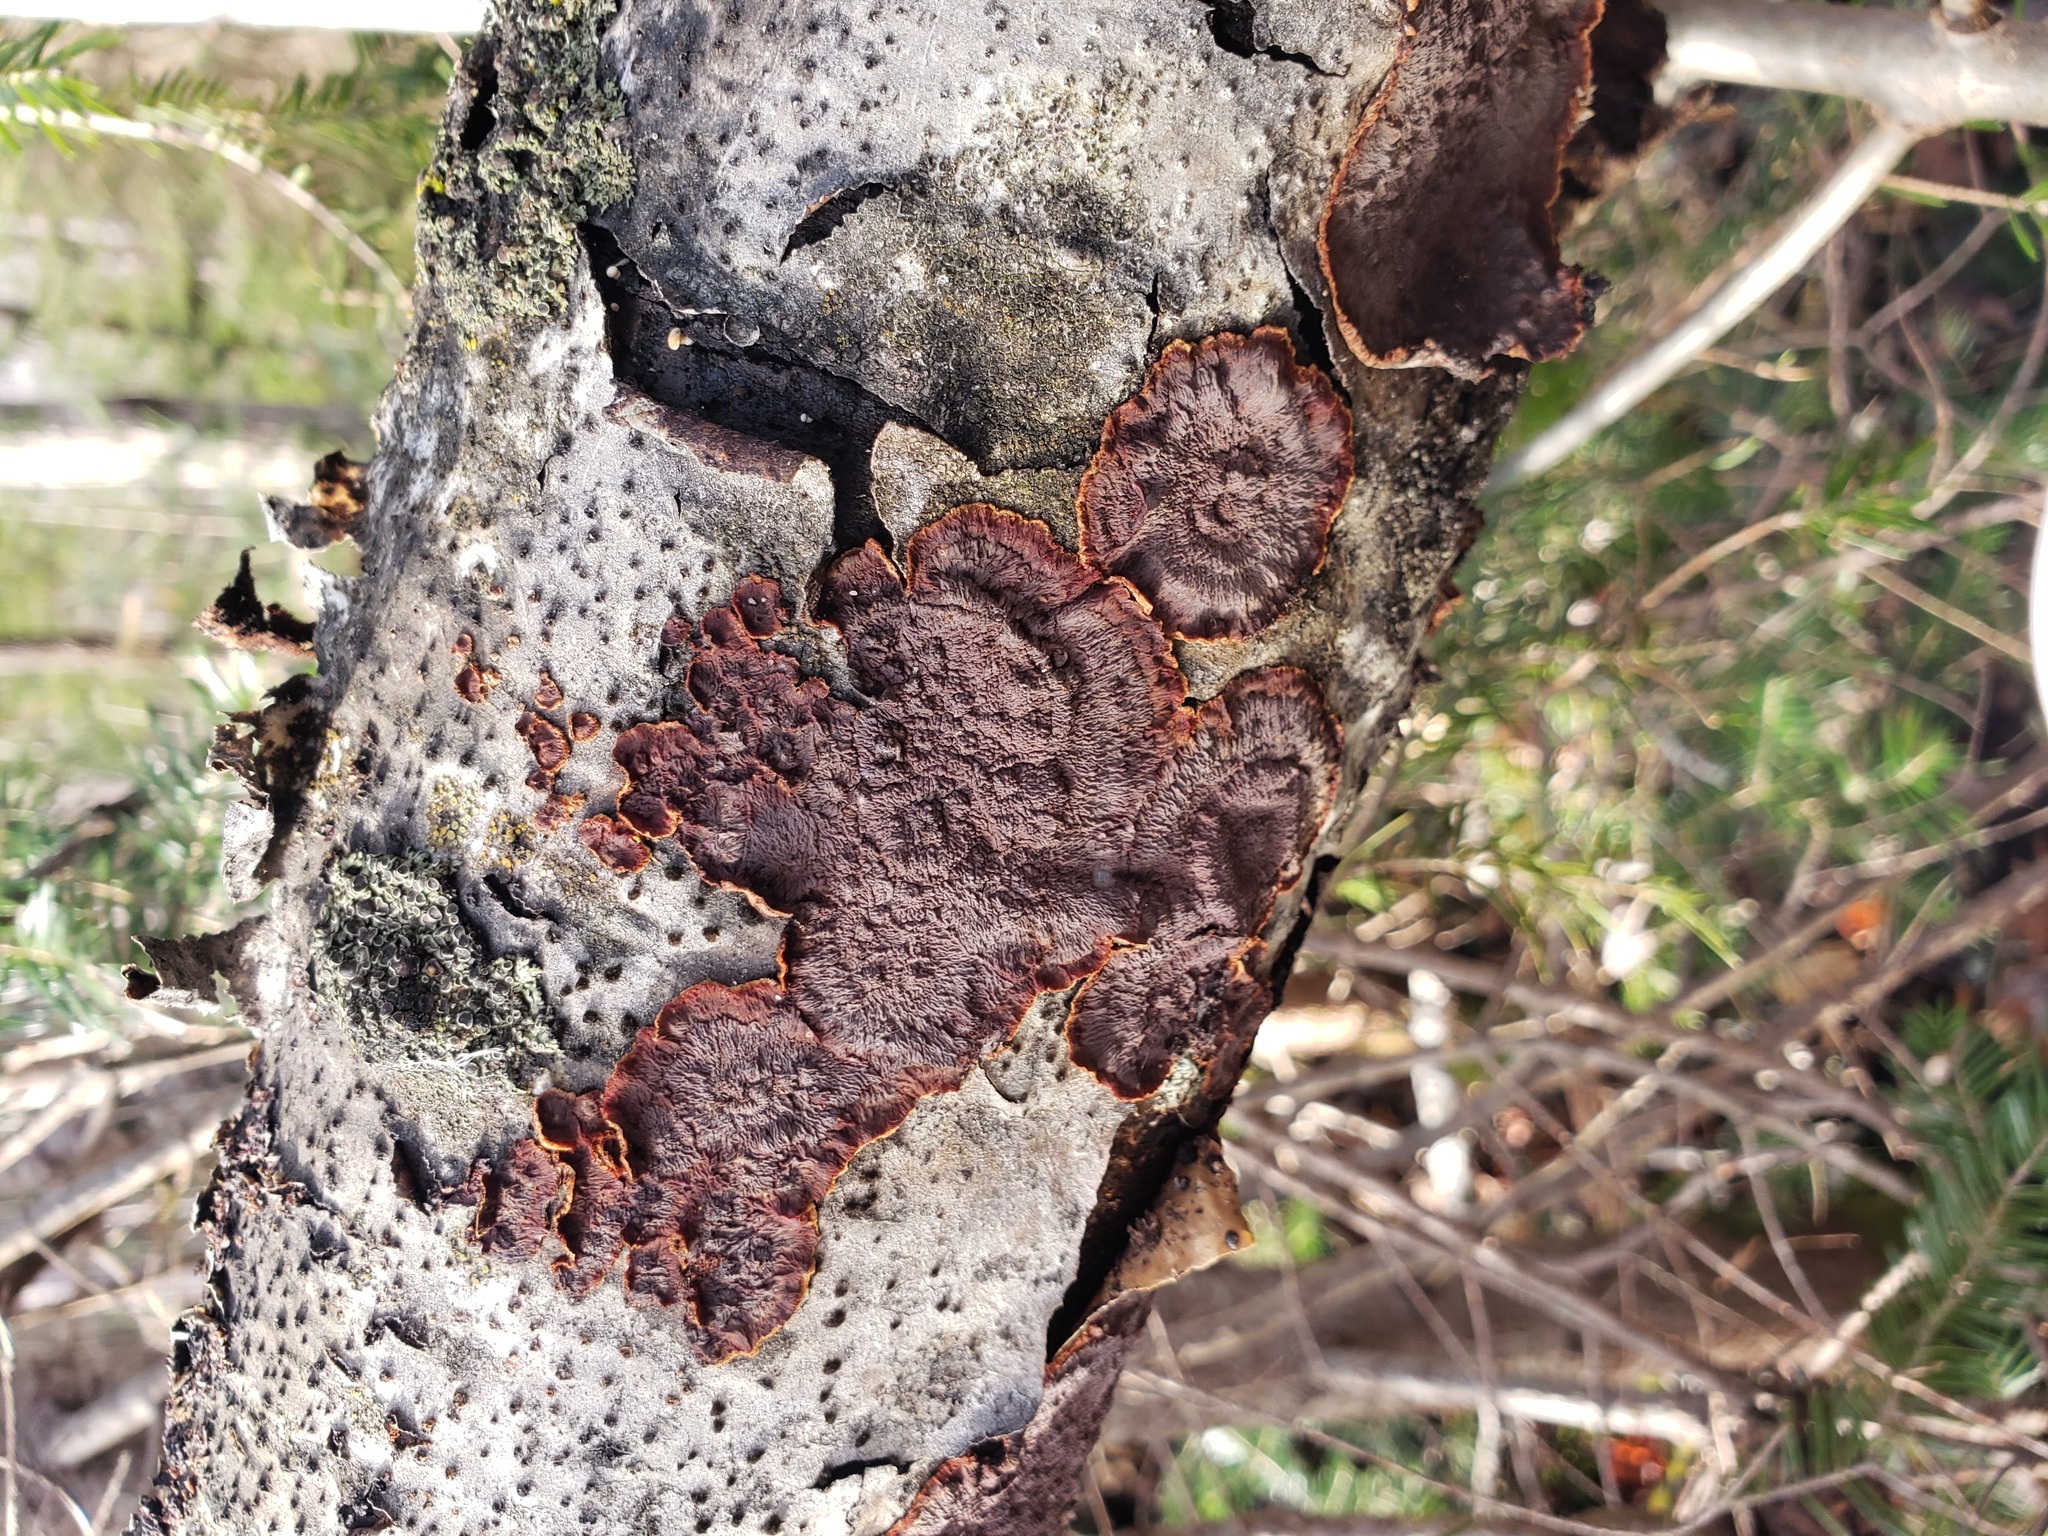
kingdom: Fungi
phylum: Basidiomycota
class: Agaricomycetes
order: Corticiales
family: Punctulariaceae
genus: Punctularia
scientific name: Punctularia strigosozonata
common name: White-rot fungus
